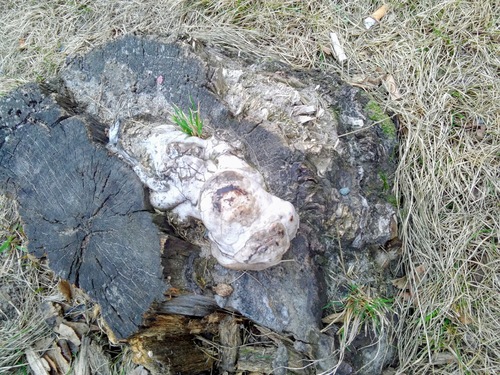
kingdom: Fungi
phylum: Basidiomycota
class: Agaricomycetes
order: Polyporales
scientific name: Polyporales
